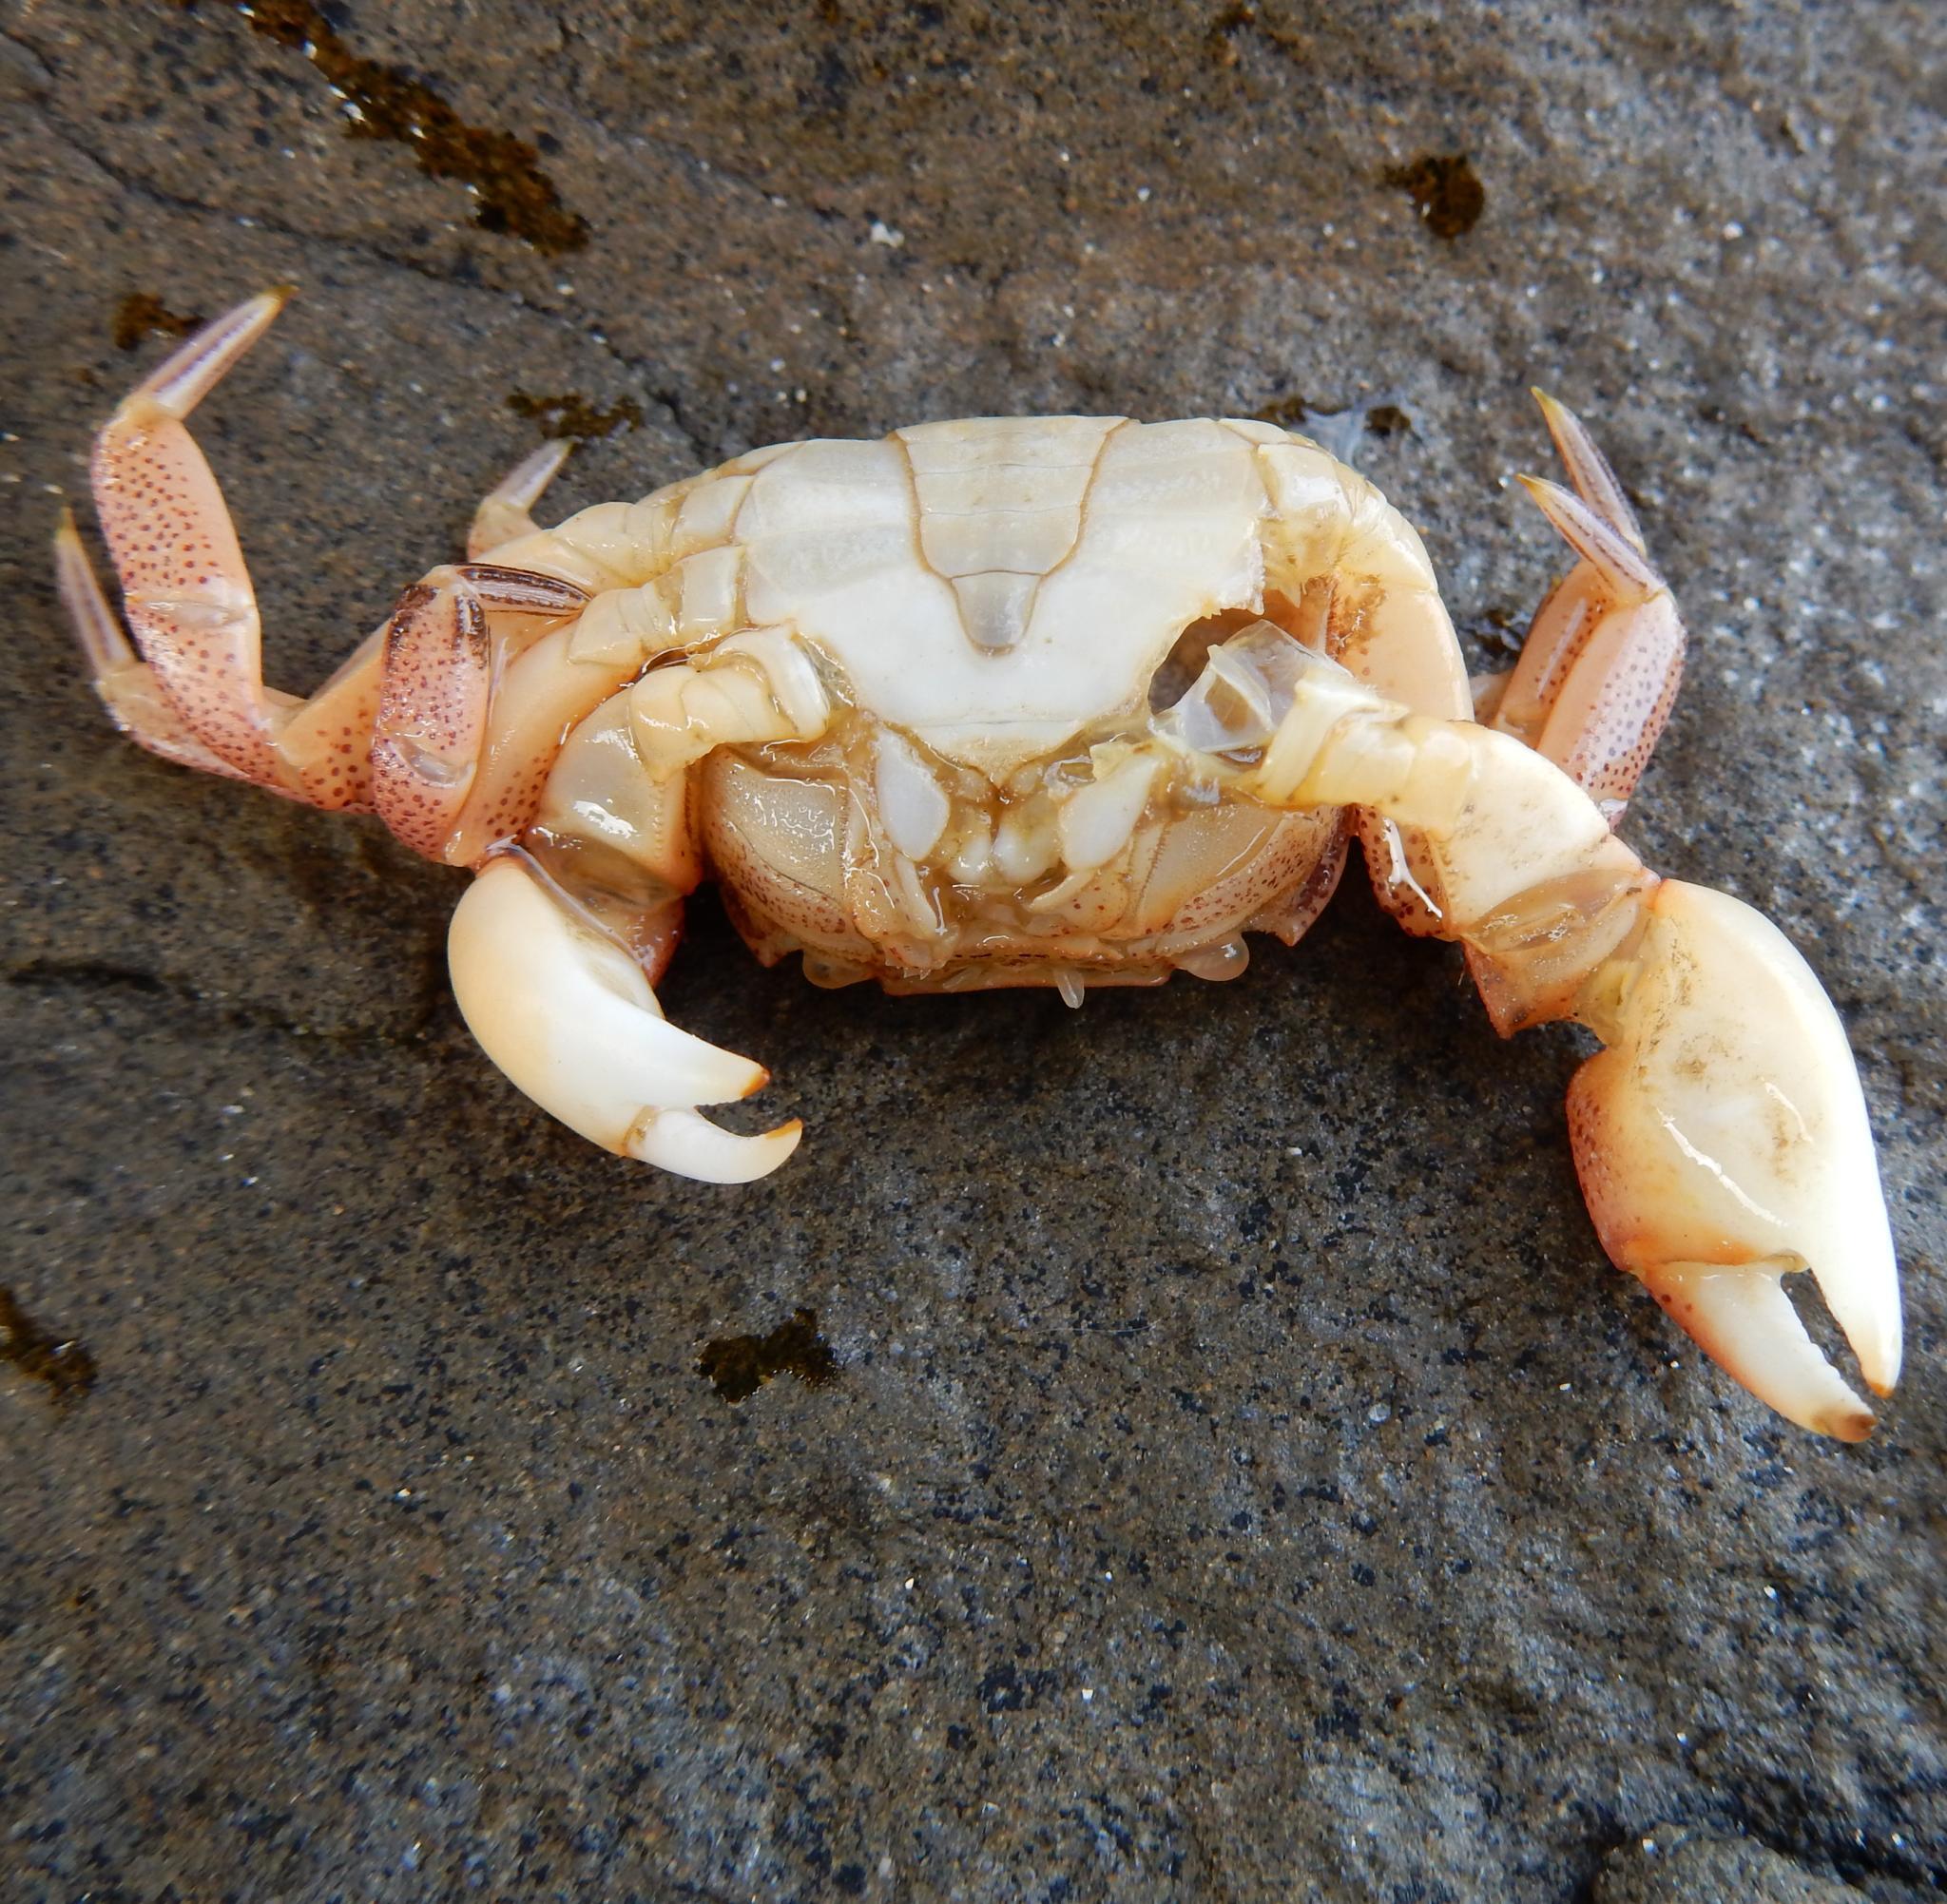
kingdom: Animalia
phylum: Arthropoda
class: Malacostraca
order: Decapoda
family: Varunidae
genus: Cyclograpsus
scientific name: Cyclograpsus punctatus
